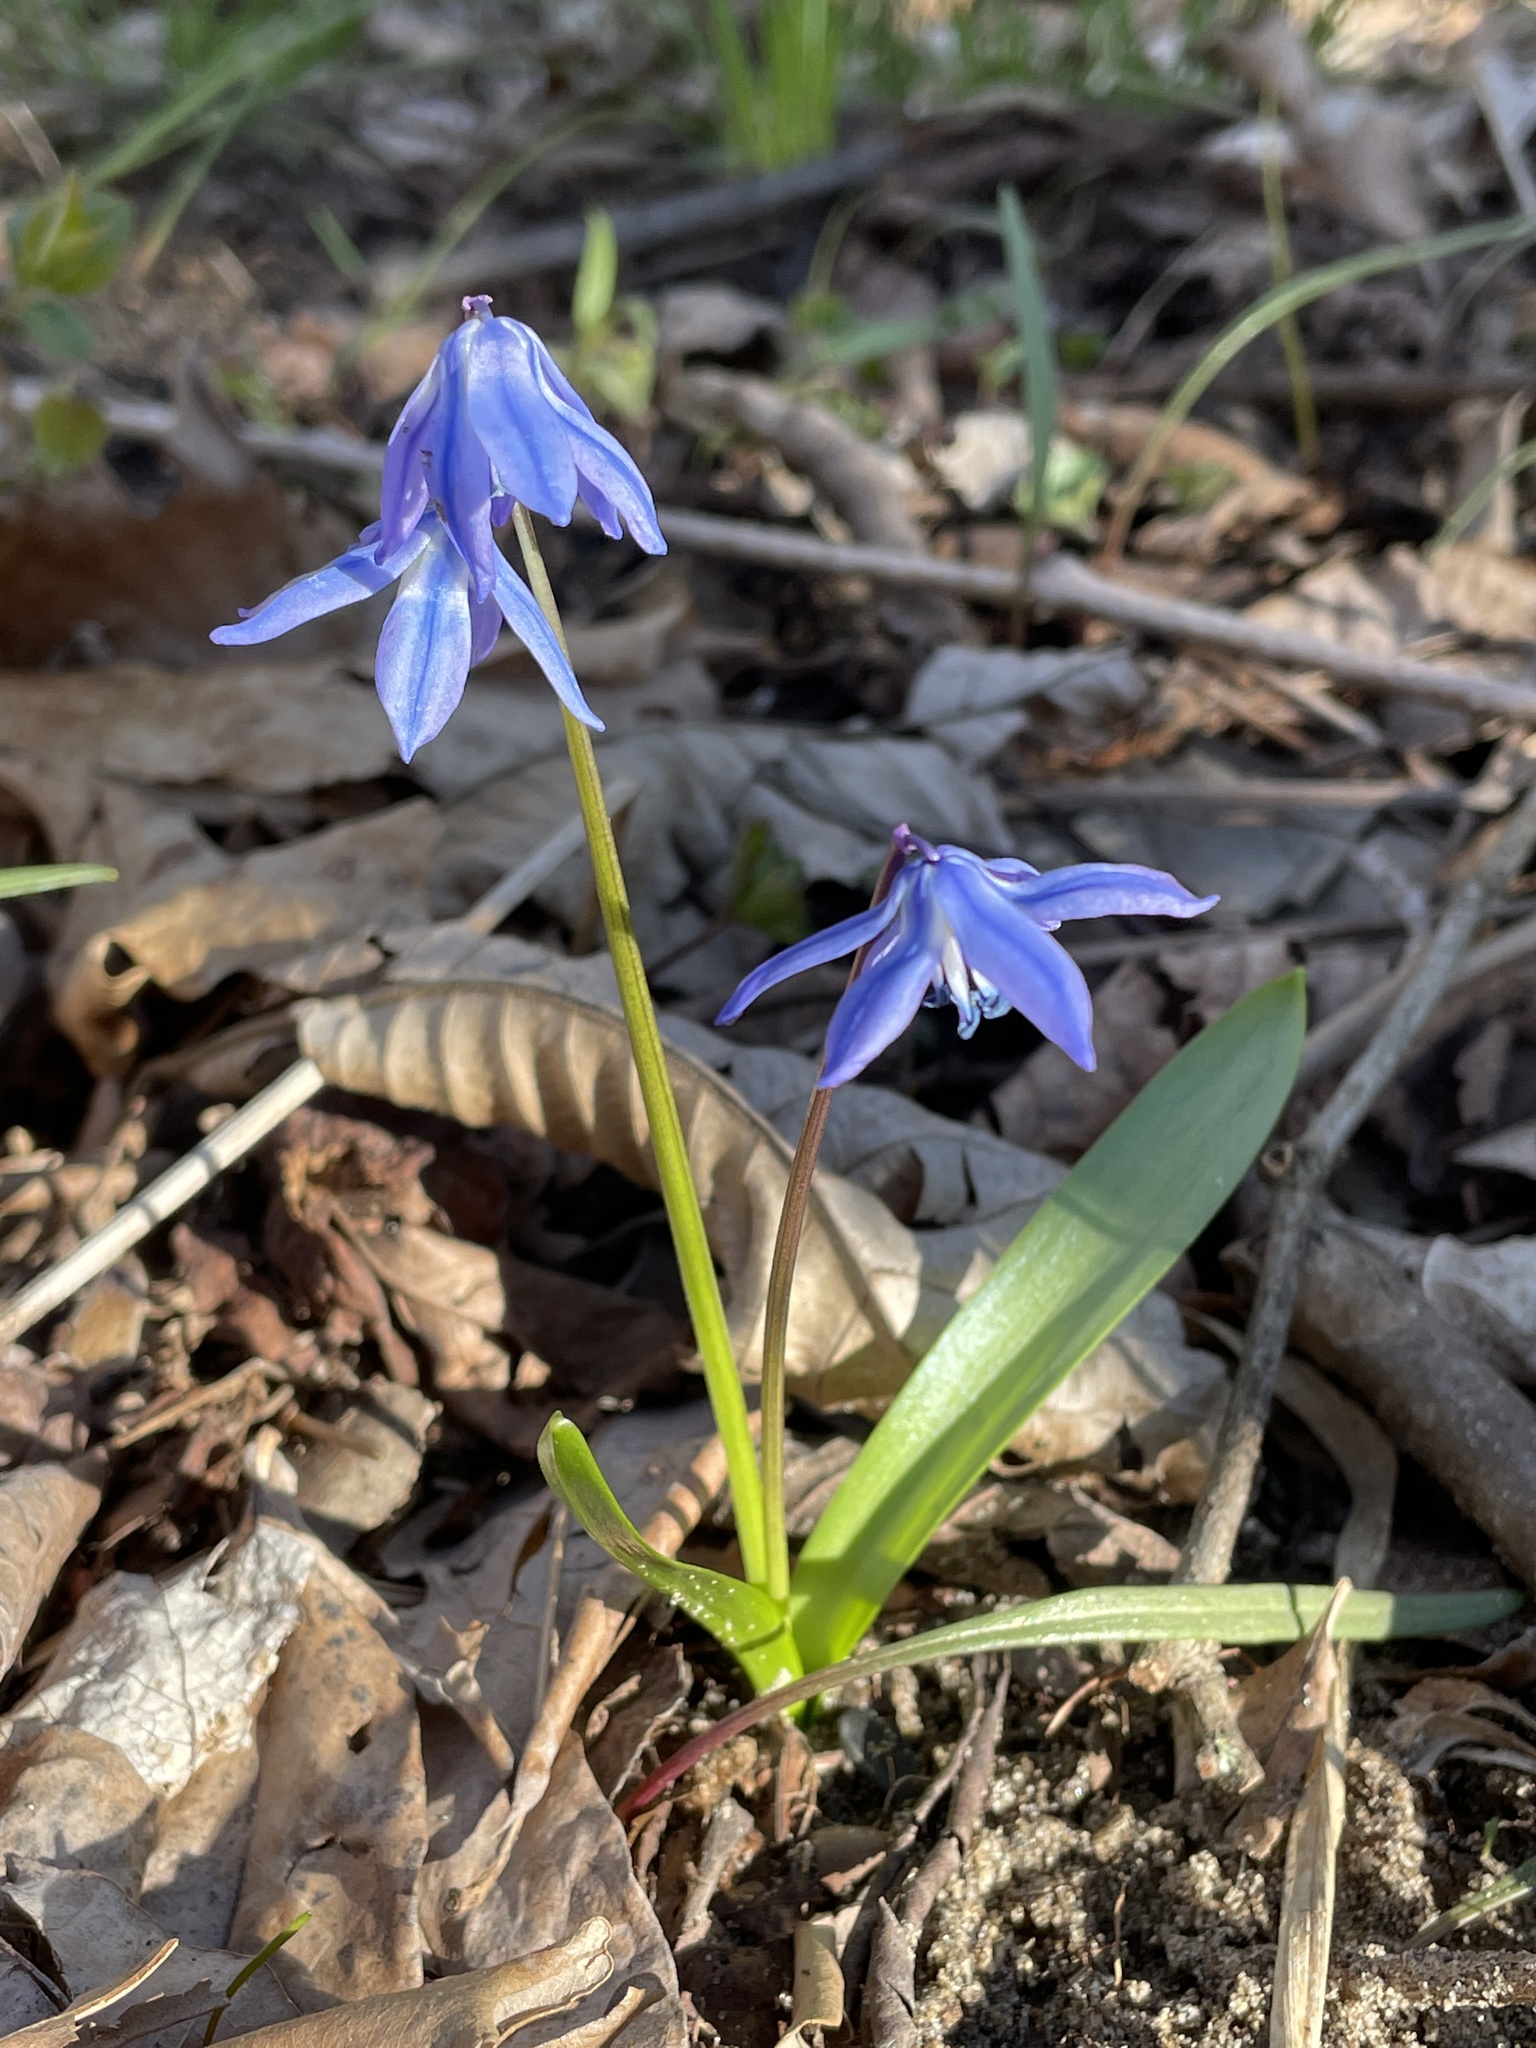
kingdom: Plantae
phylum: Tracheophyta
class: Liliopsida
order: Asparagales
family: Asparagaceae
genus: Scilla
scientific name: Scilla siberica
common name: Siberian squill
